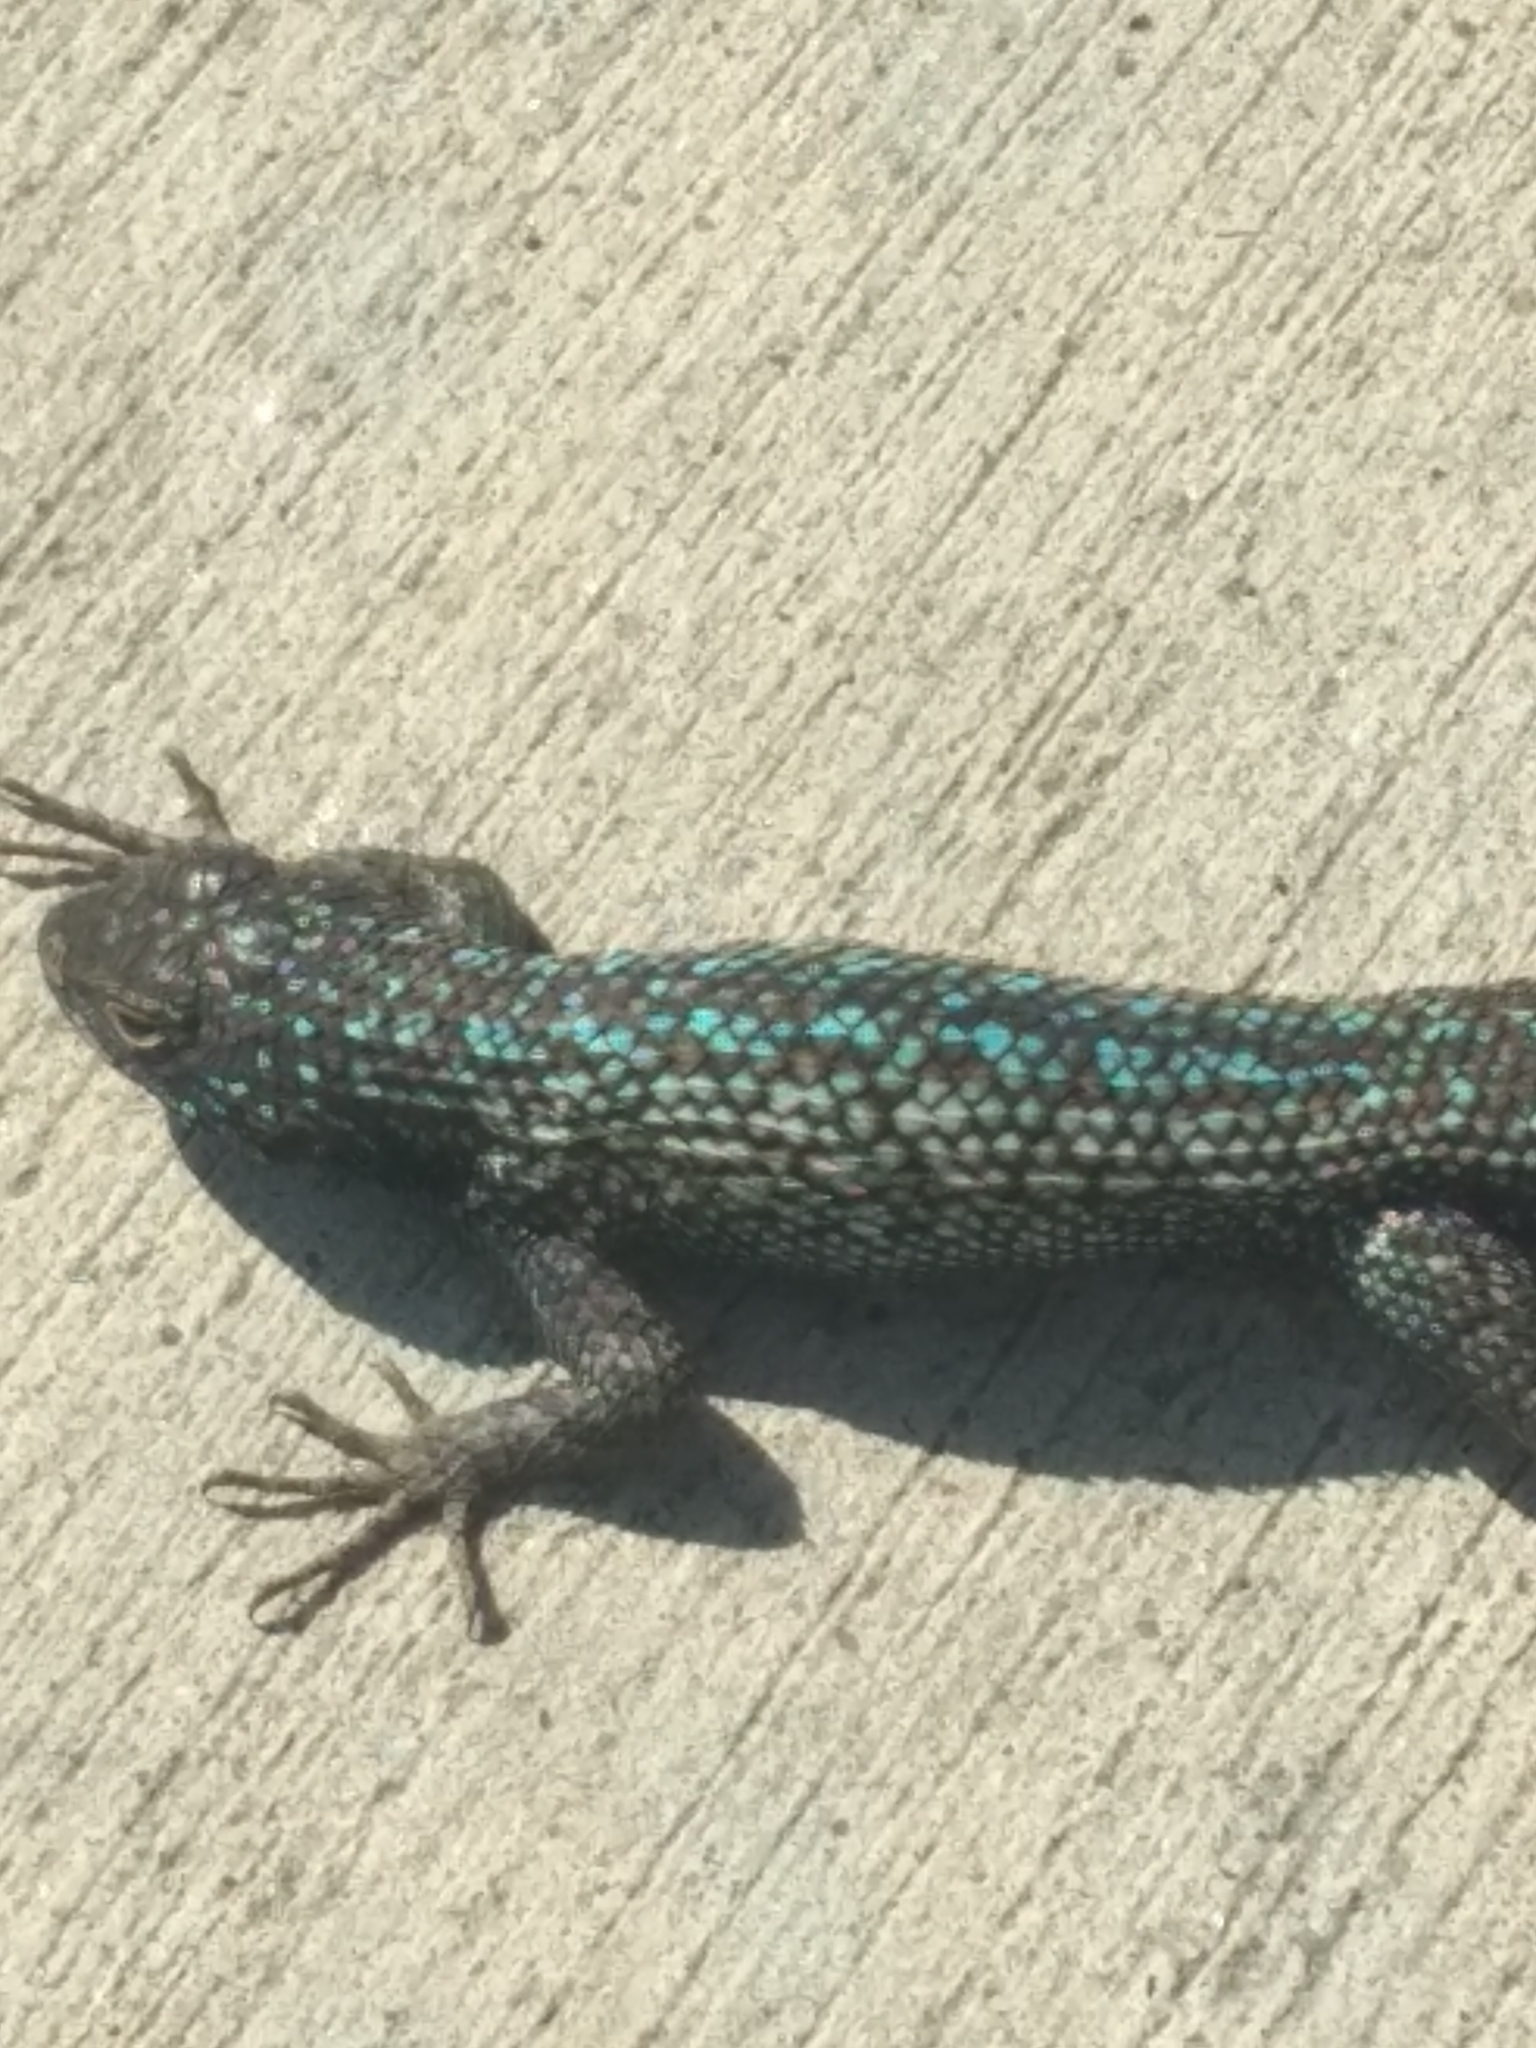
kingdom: Animalia
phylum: Chordata
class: Squamata
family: Phrynosomatidae
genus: Sceloporus
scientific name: Sceloporus occidentalis
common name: Western fence lizard
